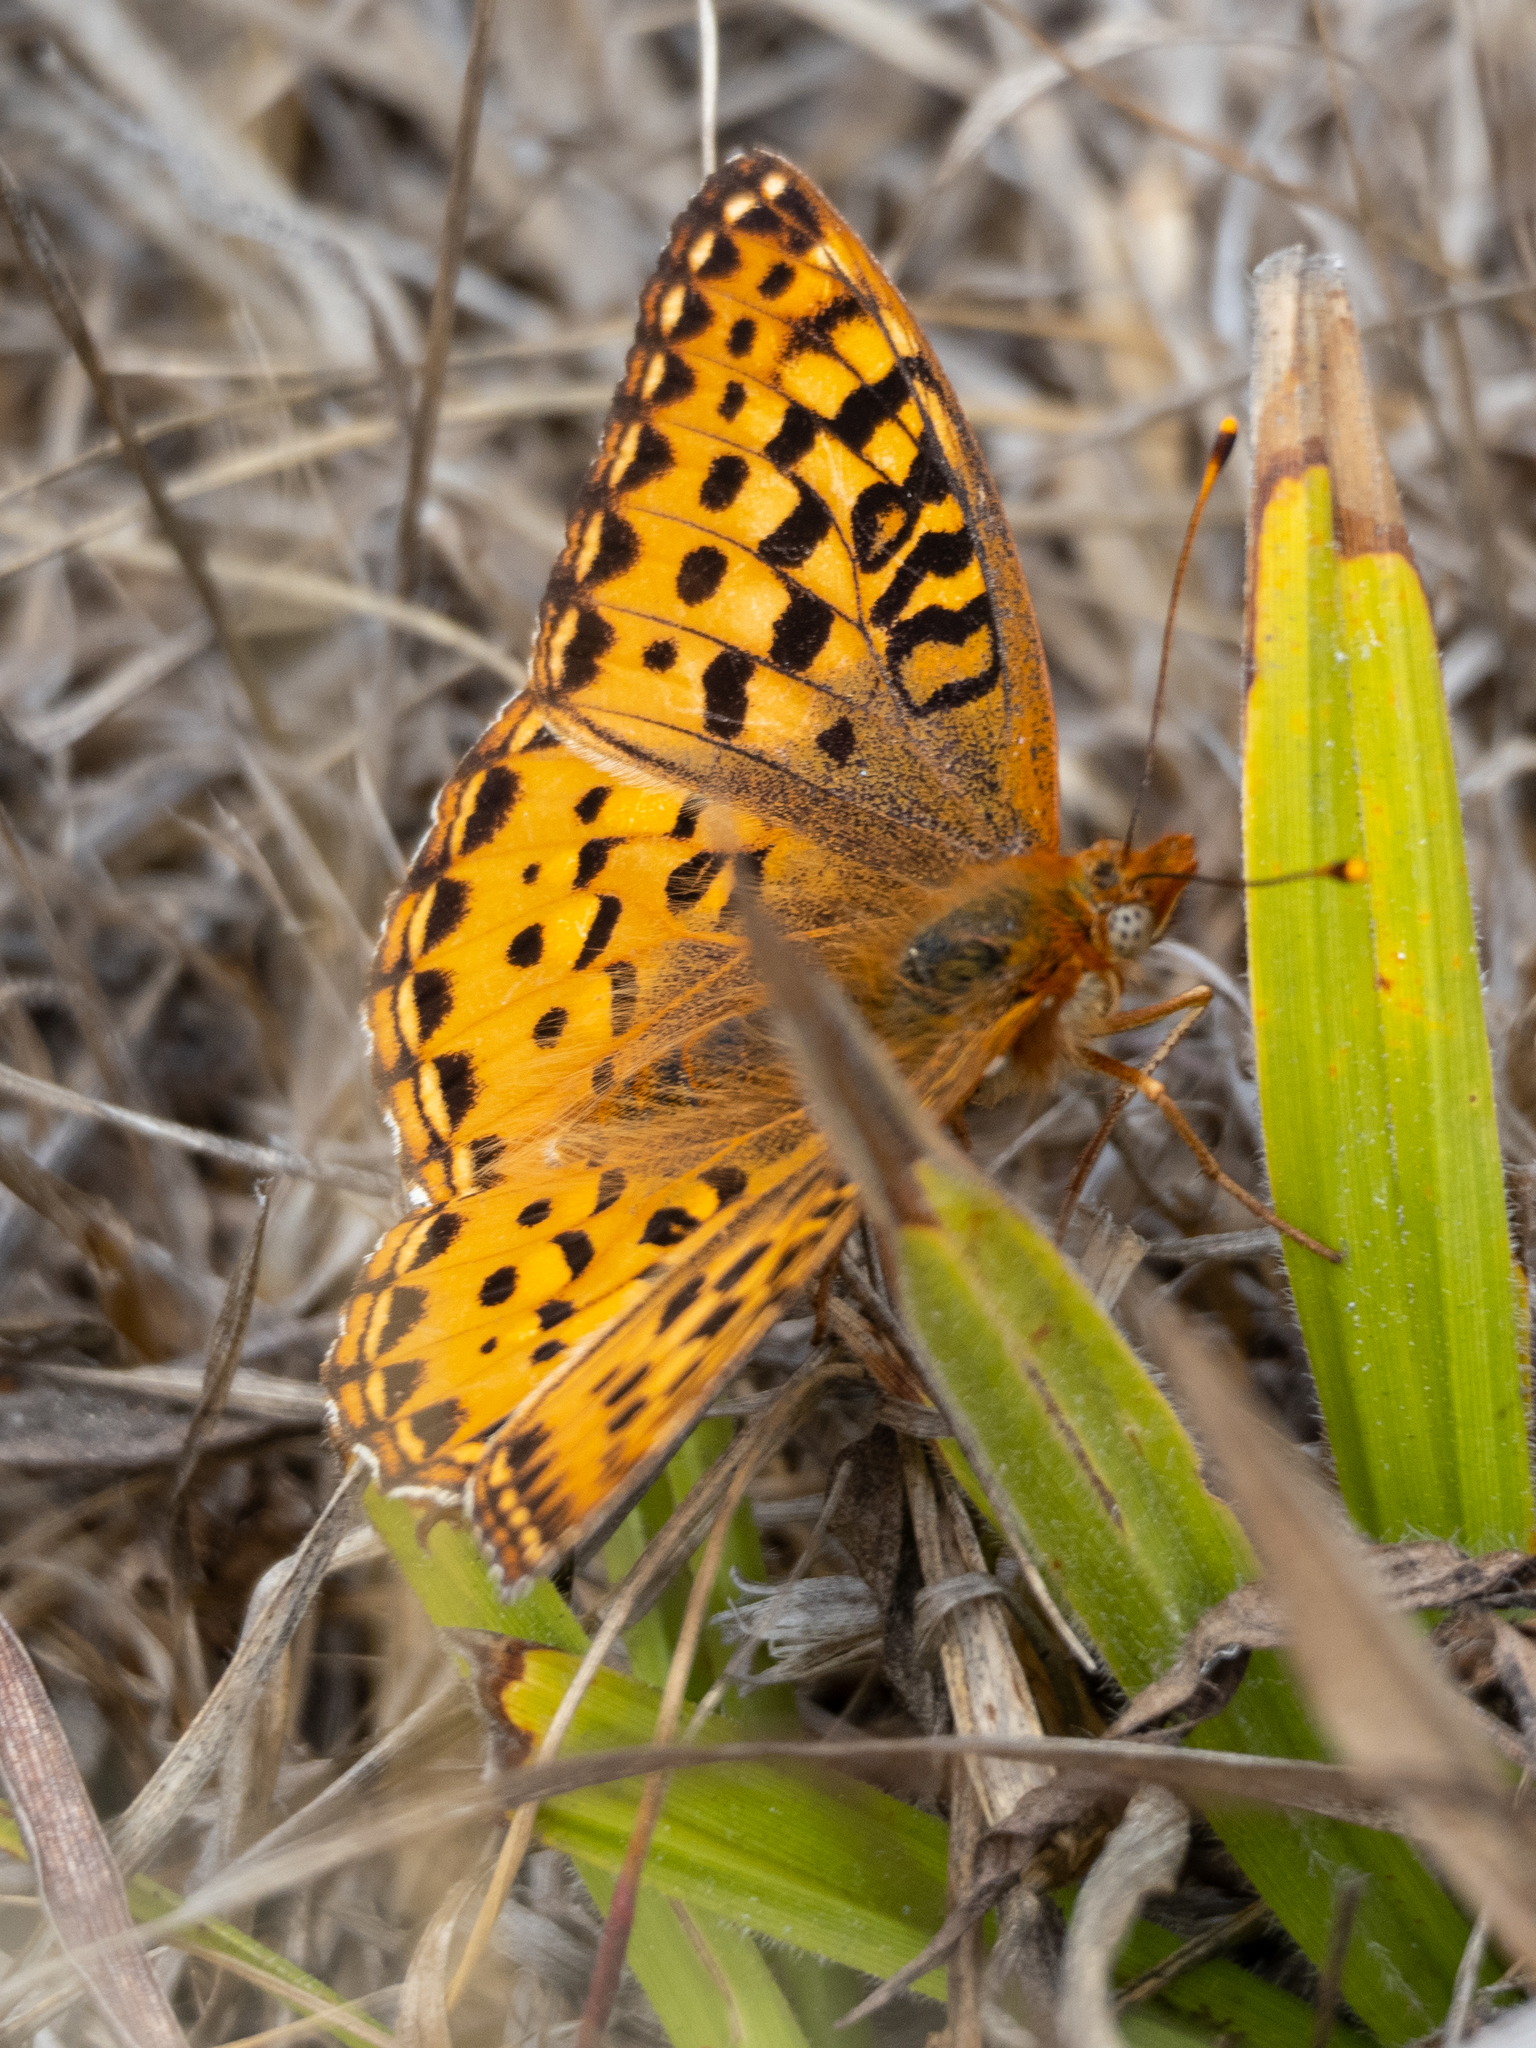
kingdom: Animalia
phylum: Arthropoda
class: Insecta
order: Lepidoptera
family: Nymphalidae
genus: Speyeria
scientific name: Speyeria zerene
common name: Zerene fritillary
